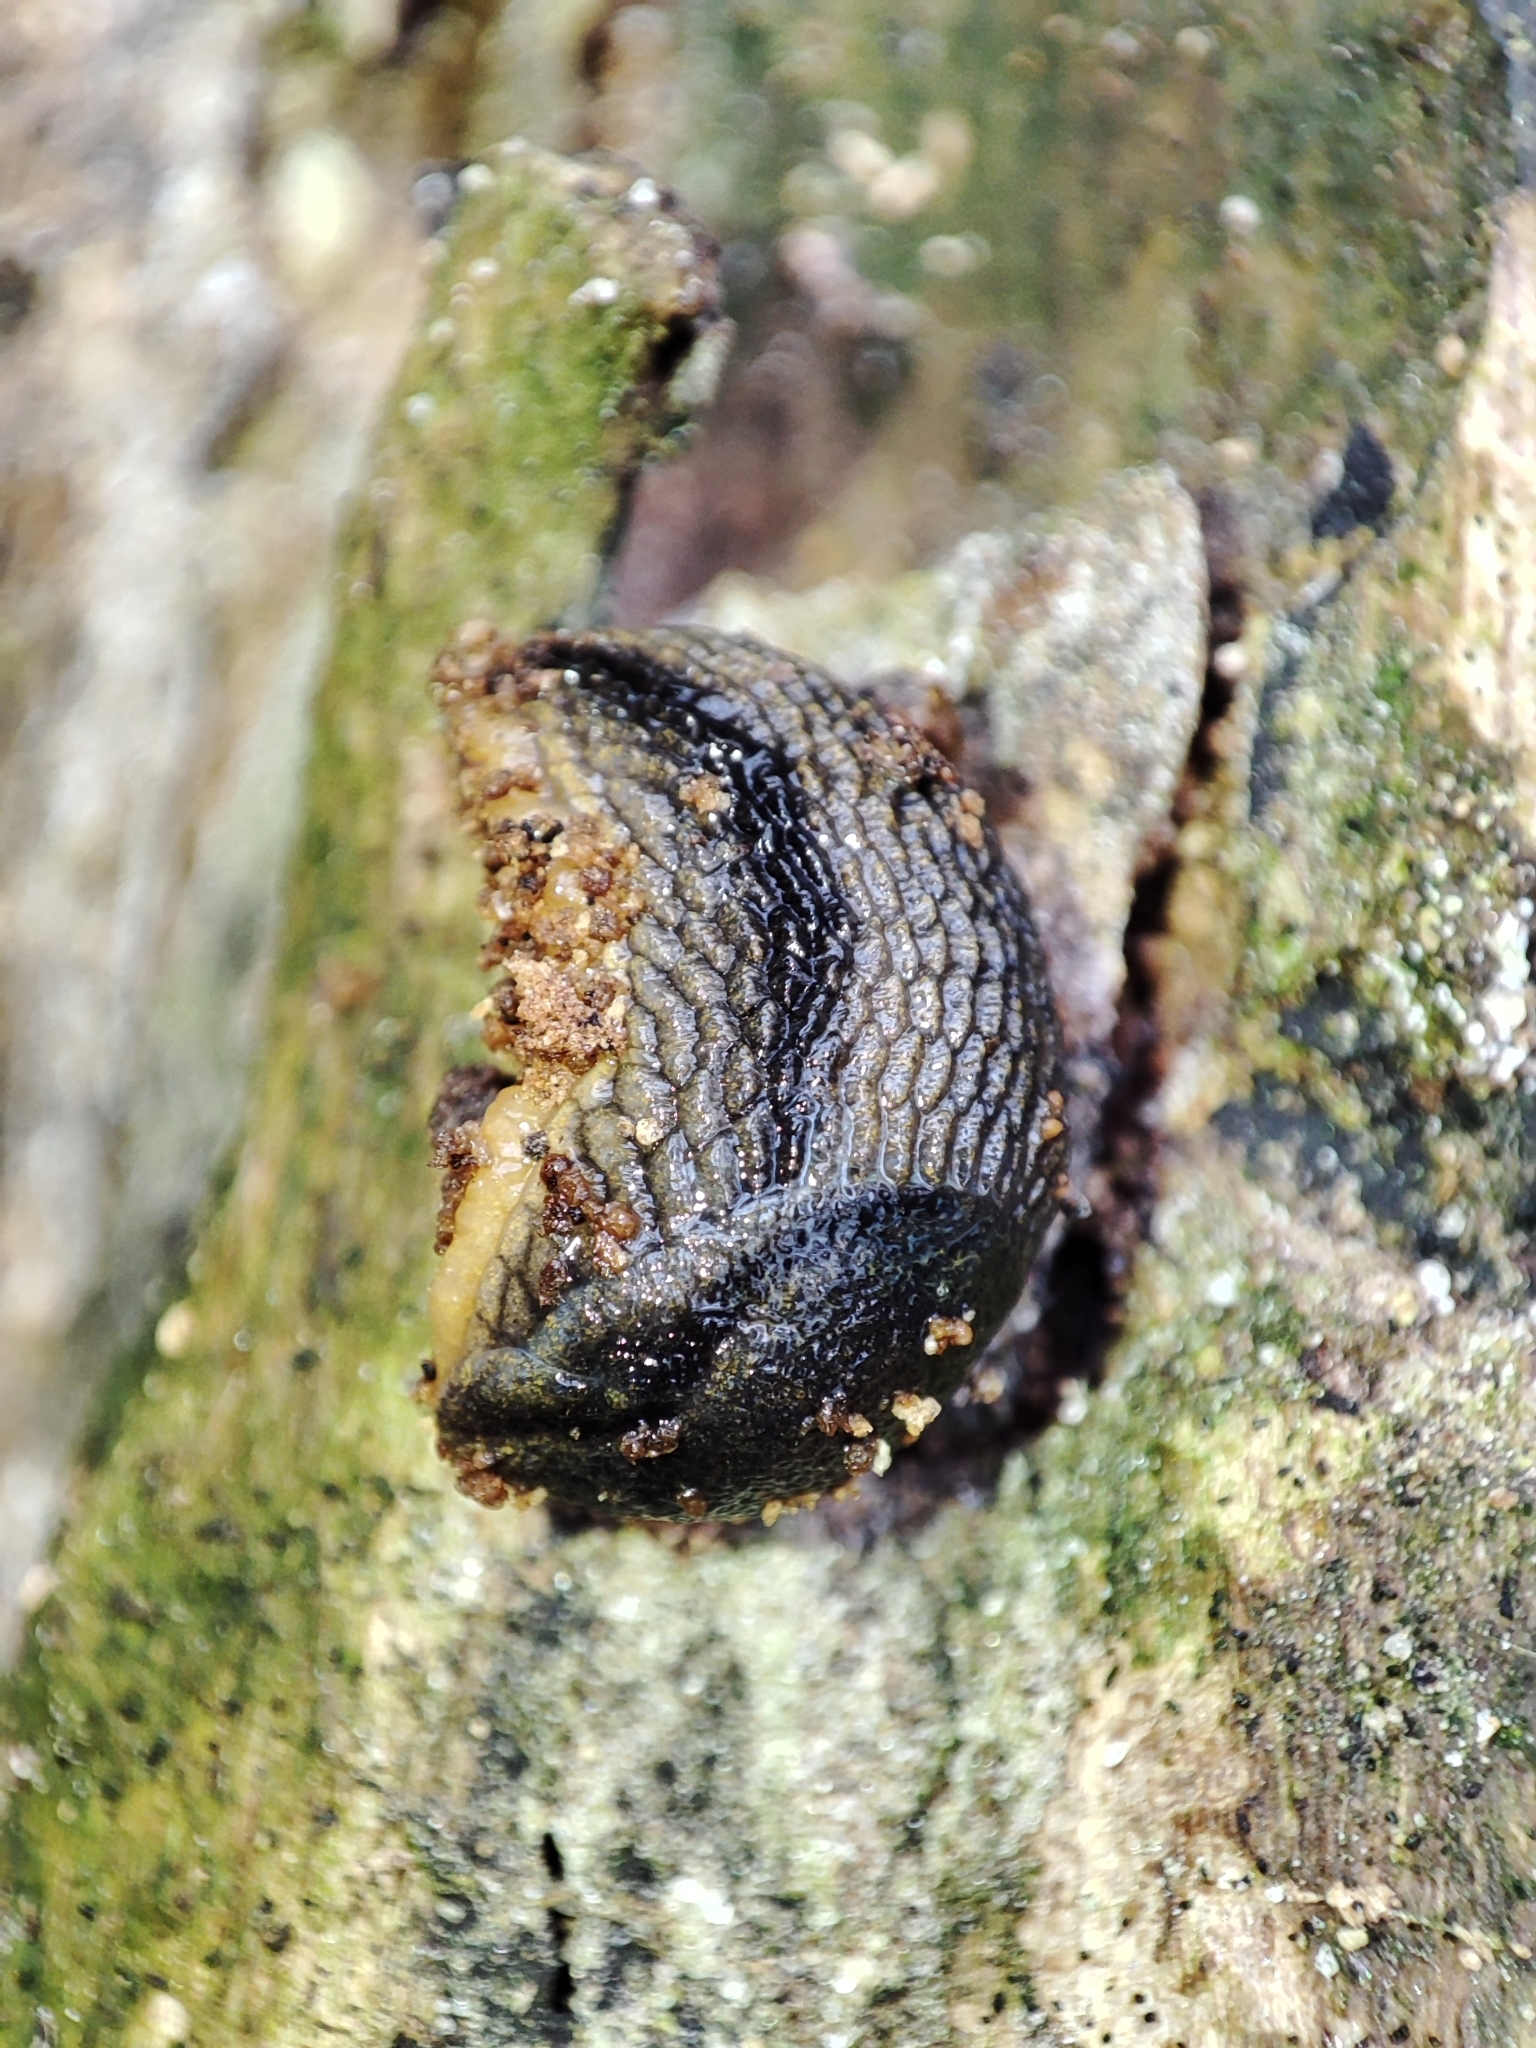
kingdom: Animalia
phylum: Mollusca
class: Gastropoda
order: Stylommatophora
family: Arionidae
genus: Arion
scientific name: Arion distinctus
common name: Darkface arion
